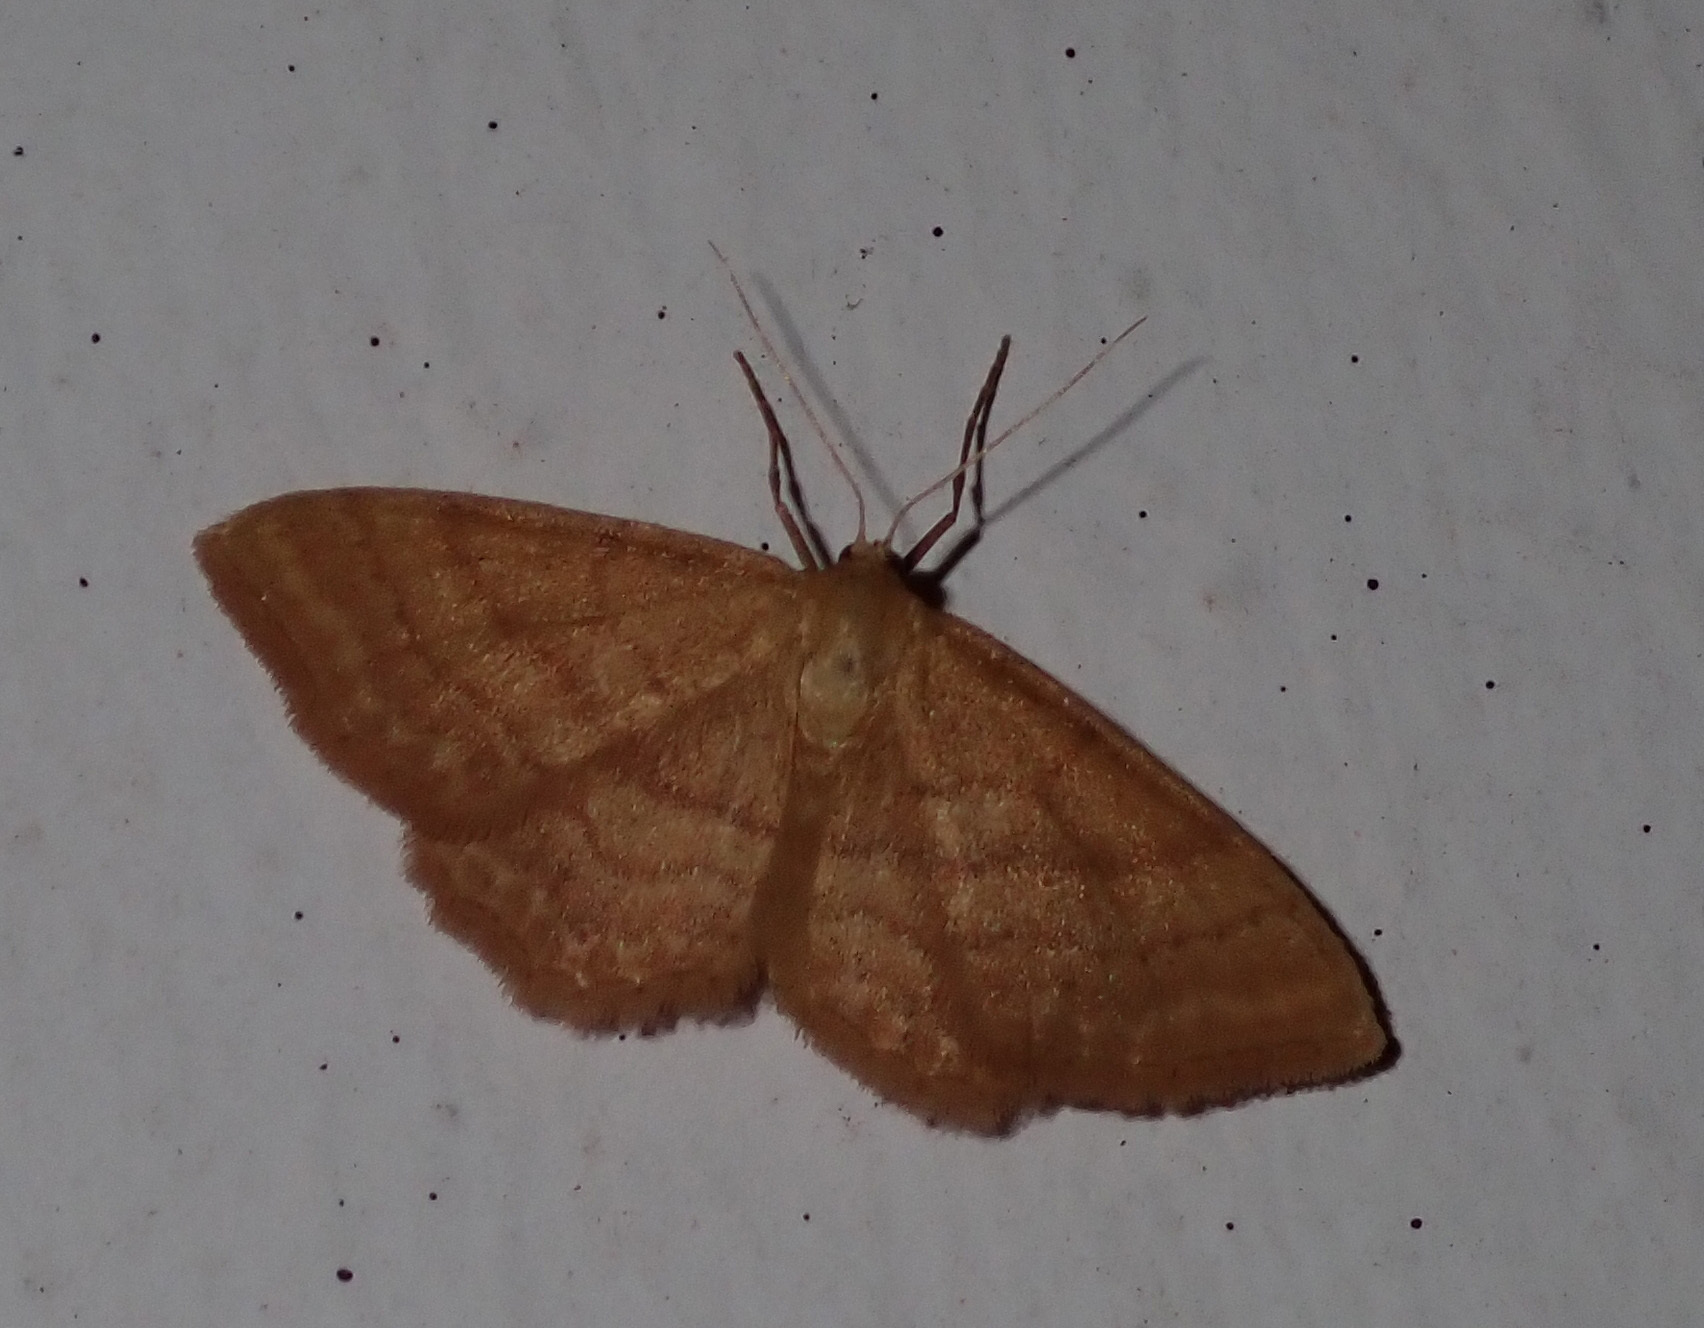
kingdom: Animalia
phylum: Arthropoda
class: Insecta
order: Lepidoptera
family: Geometridae
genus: Idaea
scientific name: Idaea ochrata
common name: Bright wave
